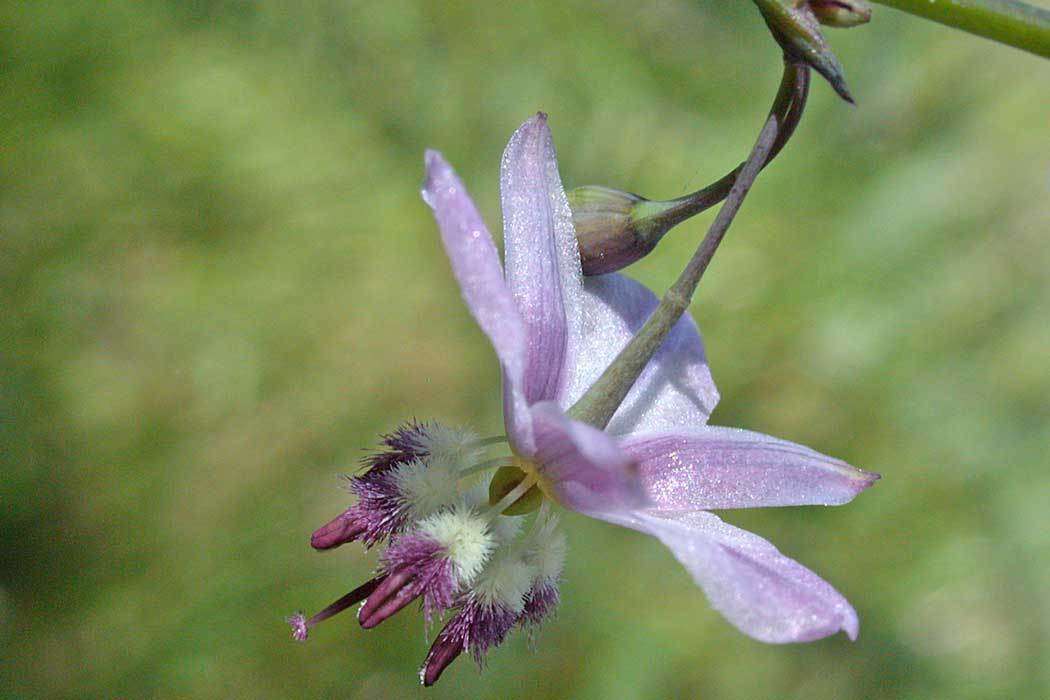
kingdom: Plantae
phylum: Tracheophyta
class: Liliopsida
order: Asparagales
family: Asparagaceae
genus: Arthropodium
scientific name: Arthropodium milleflorum
